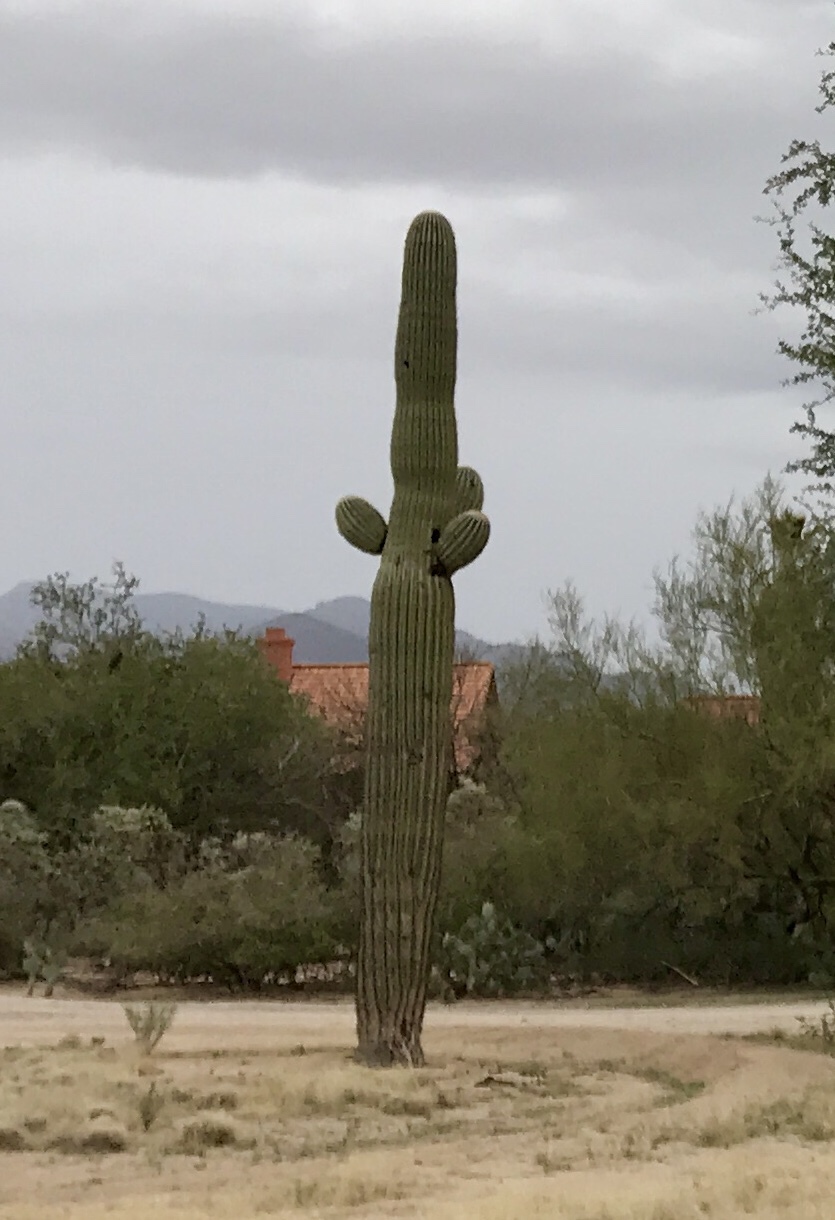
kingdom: Plantae
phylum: Tracheophyta
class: Magnoliopsida
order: Caryophyllales
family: Cactaceae
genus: Carnegiea
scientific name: Carnegiea gigantea
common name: Saguaro
